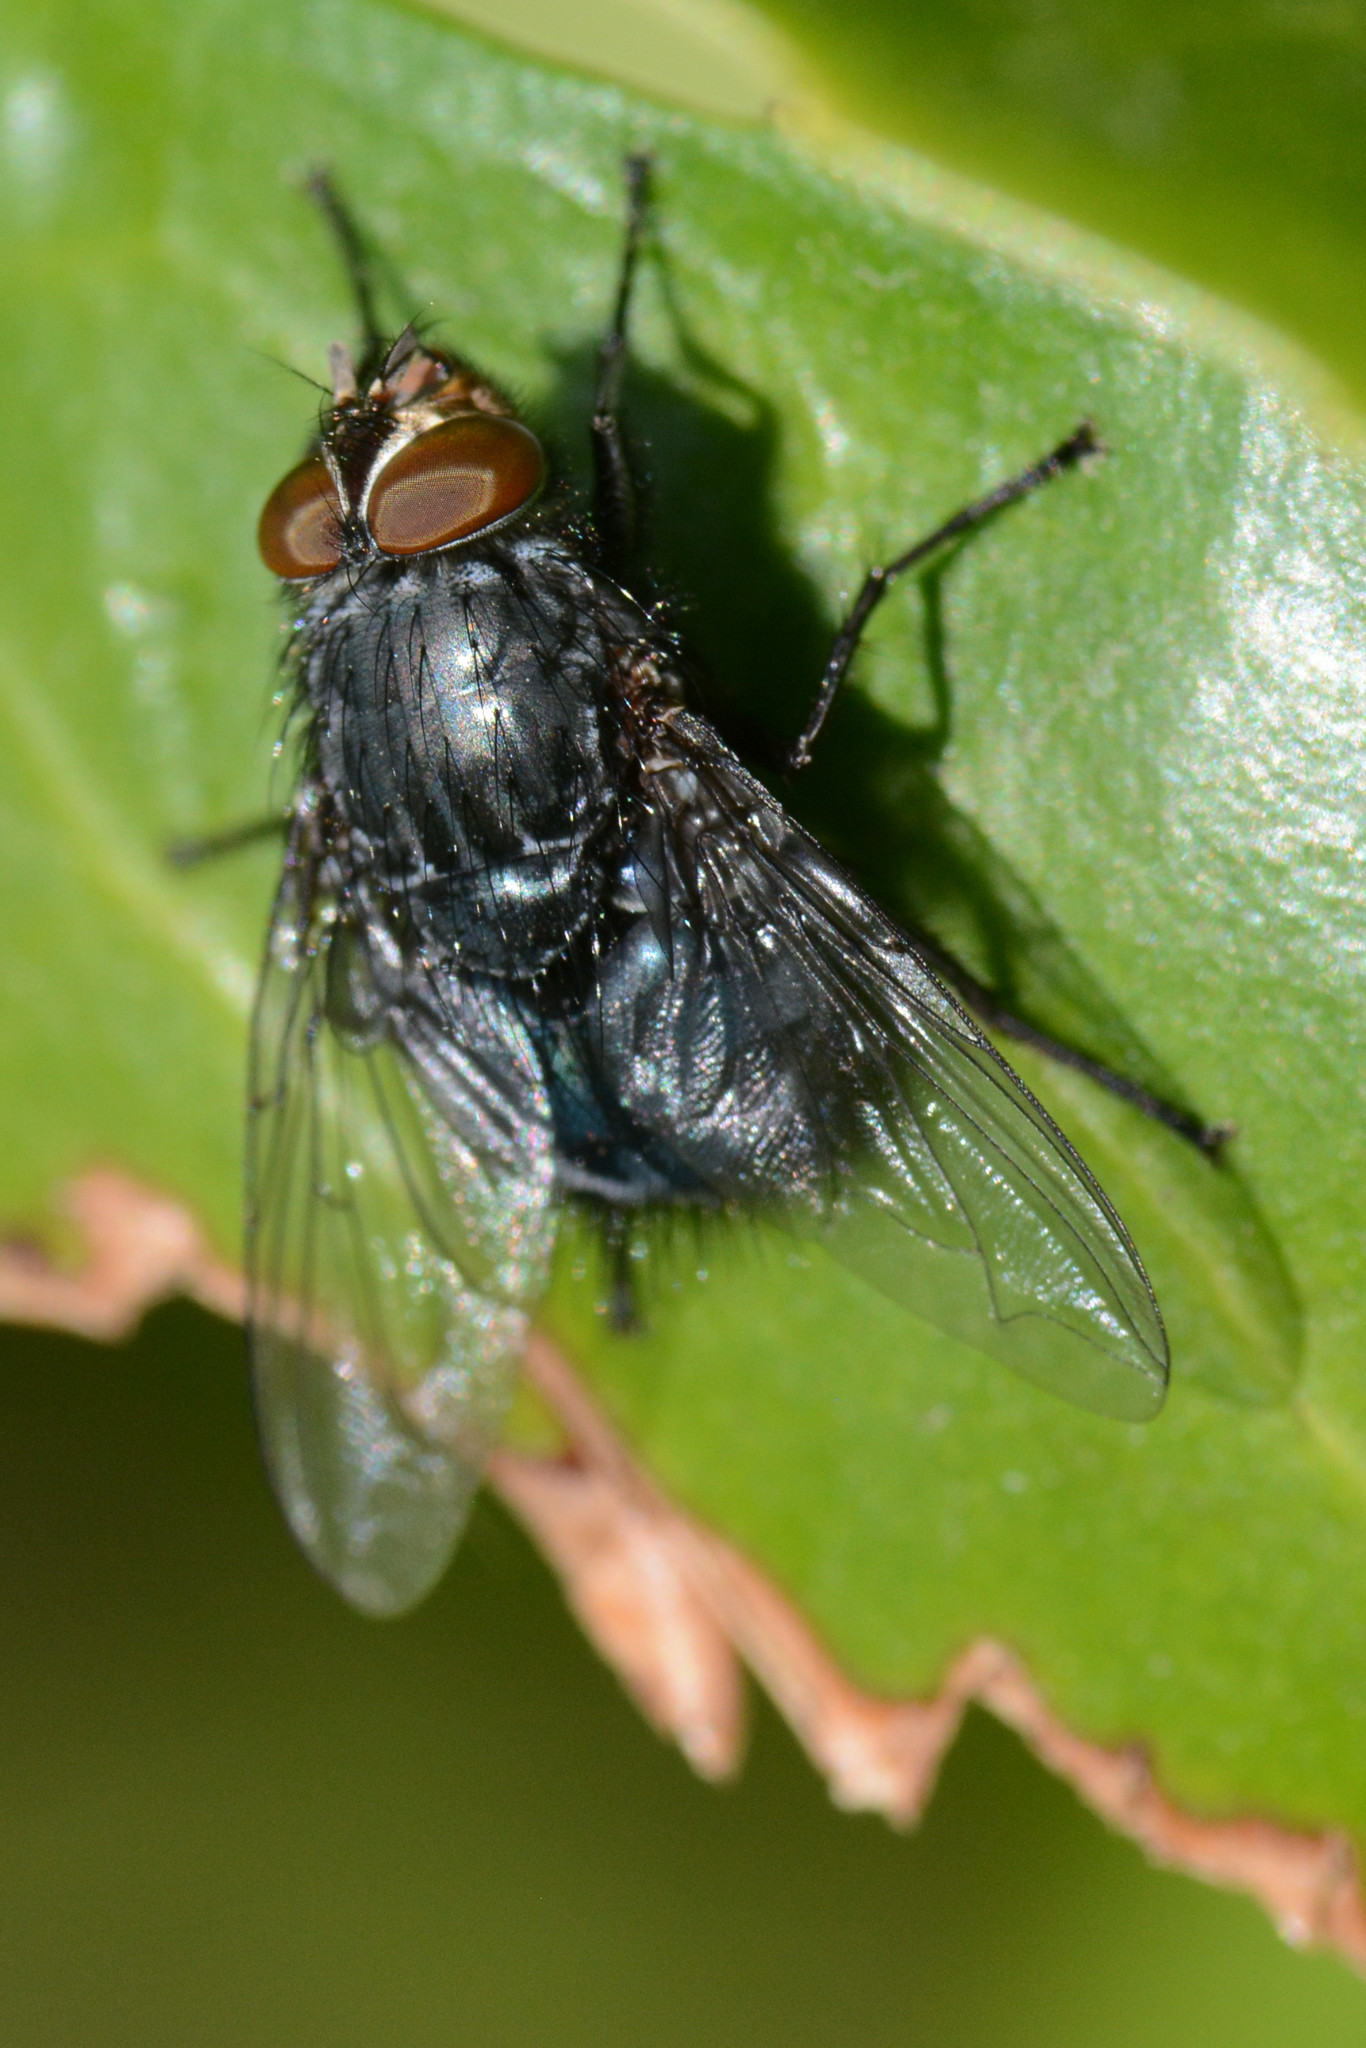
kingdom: Animalia
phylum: Arthropoda
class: Insecta
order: Diptera
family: Calliphoridae
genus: Calliphora
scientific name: Calliphora vicina
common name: Common blow flie
